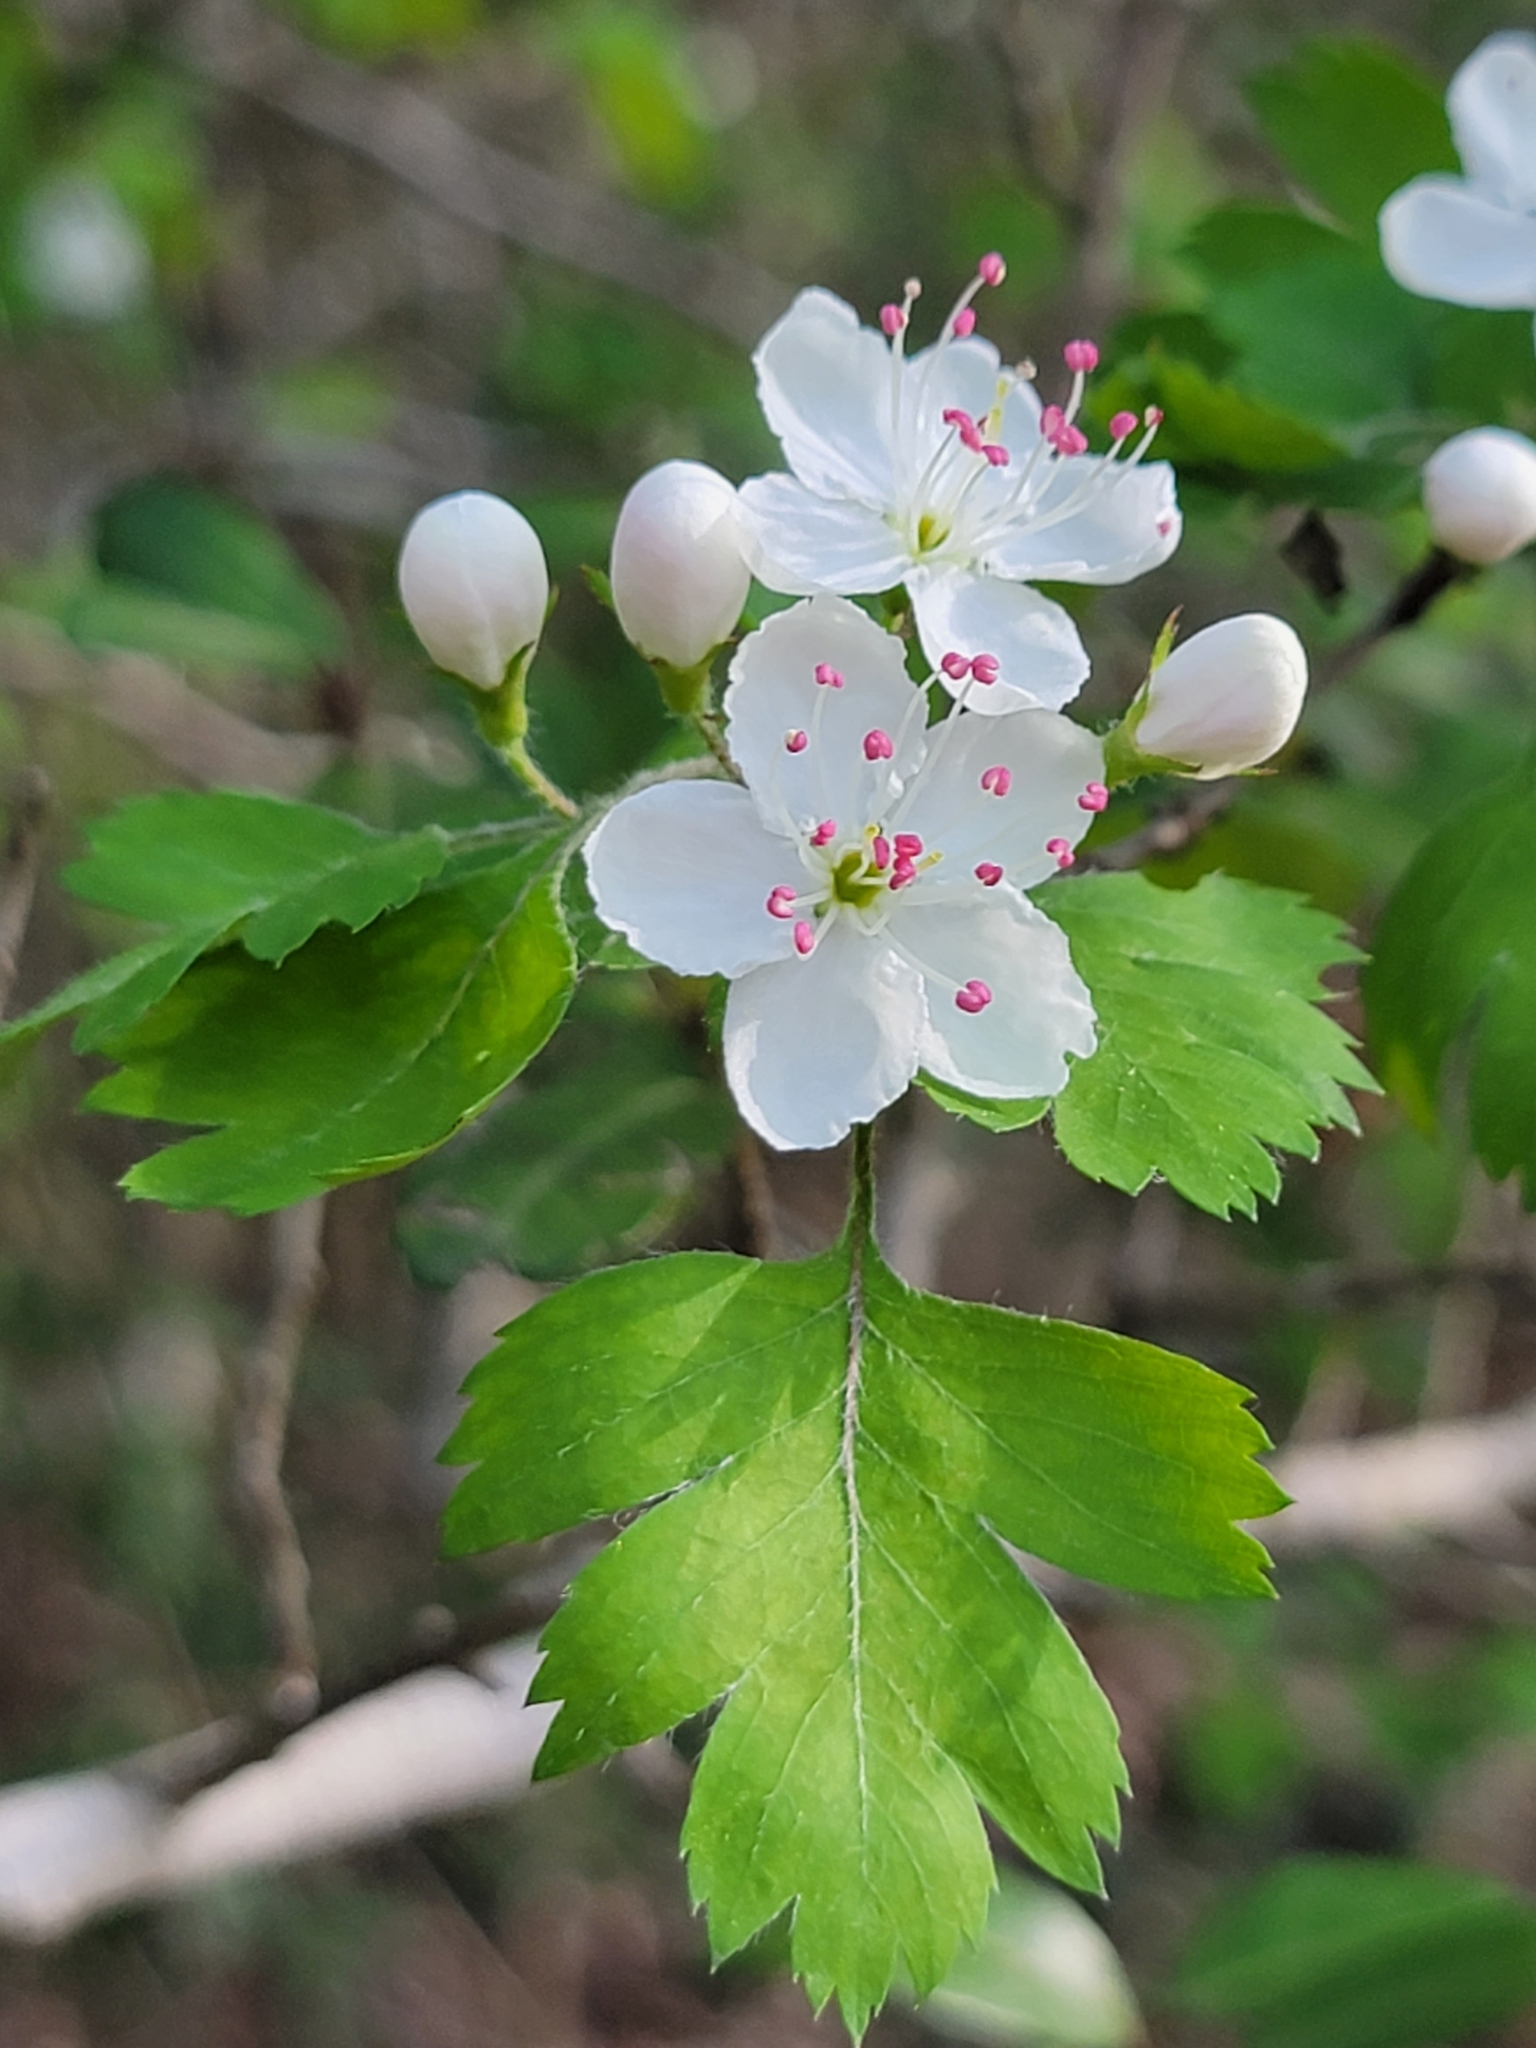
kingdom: Plantae
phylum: Tracheophyta
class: Magnoliopsida
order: Rosales
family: Rosaceae
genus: Crataegus
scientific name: Crataegus marshallii
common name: Parsley-hawthorn
